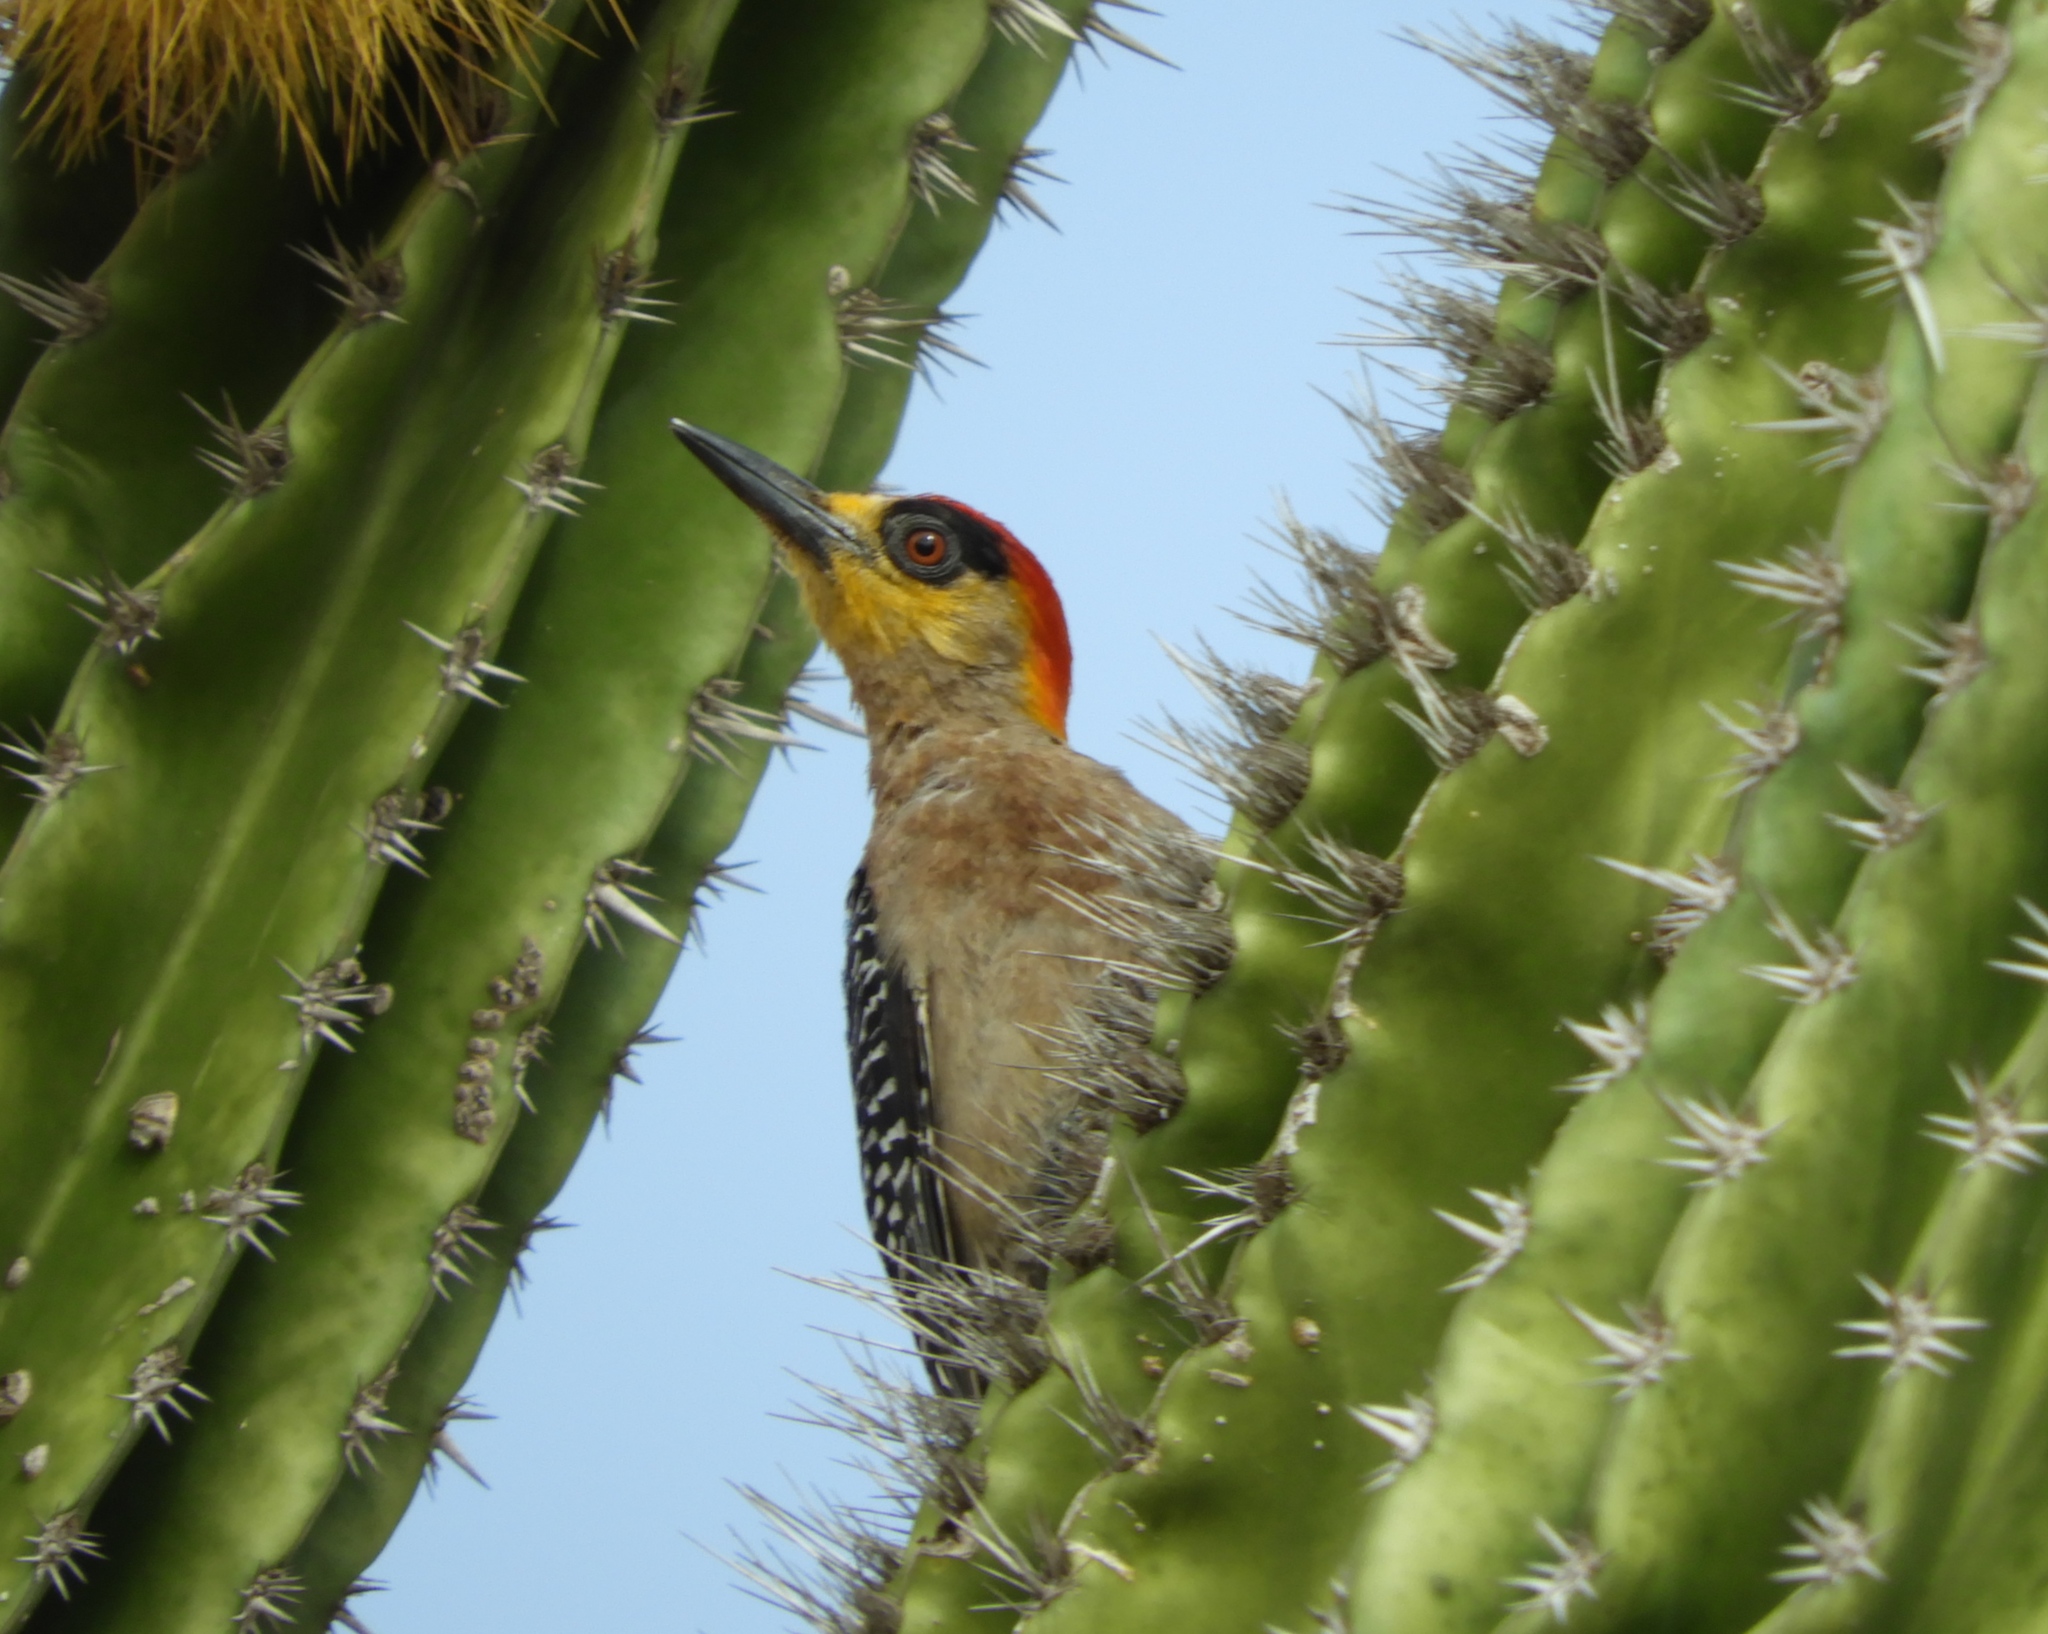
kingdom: Animalia
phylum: Chordata
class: Aves
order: Piciformes
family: Picidae
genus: Melanerpes
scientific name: Melanerpes chrysogenys
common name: Golden-cheeked woodpecker
